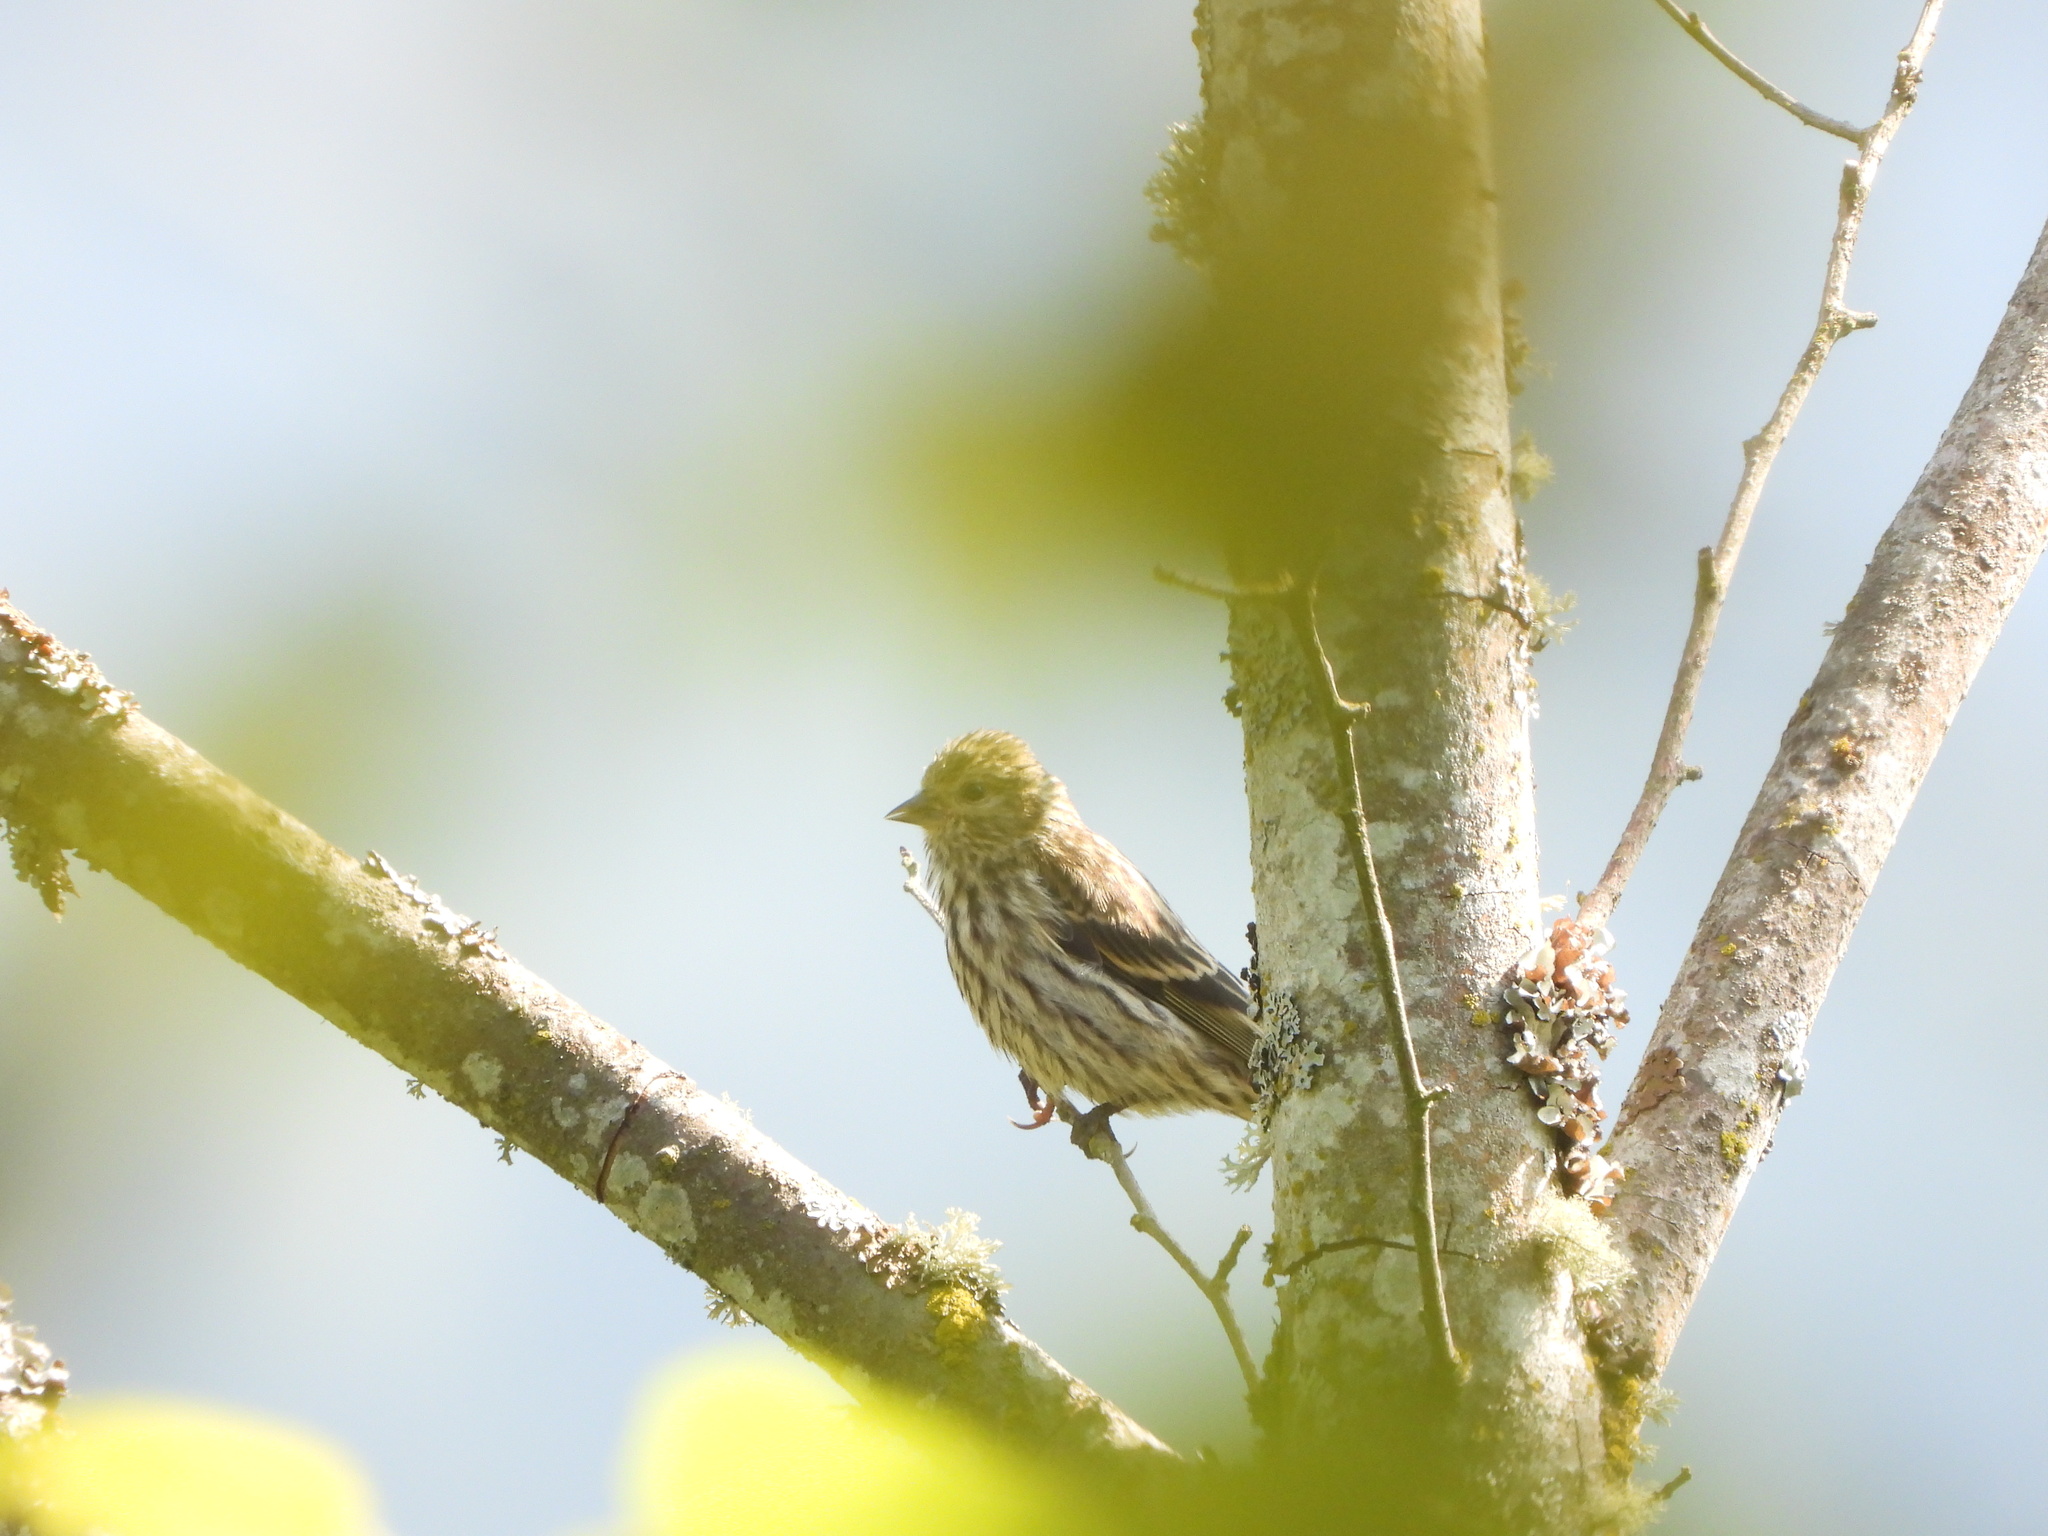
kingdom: Animalia
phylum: Chordata
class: Aves
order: Passeriformes
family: Fringillidae
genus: Spinus
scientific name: Spinus pinus
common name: Pine siskin
